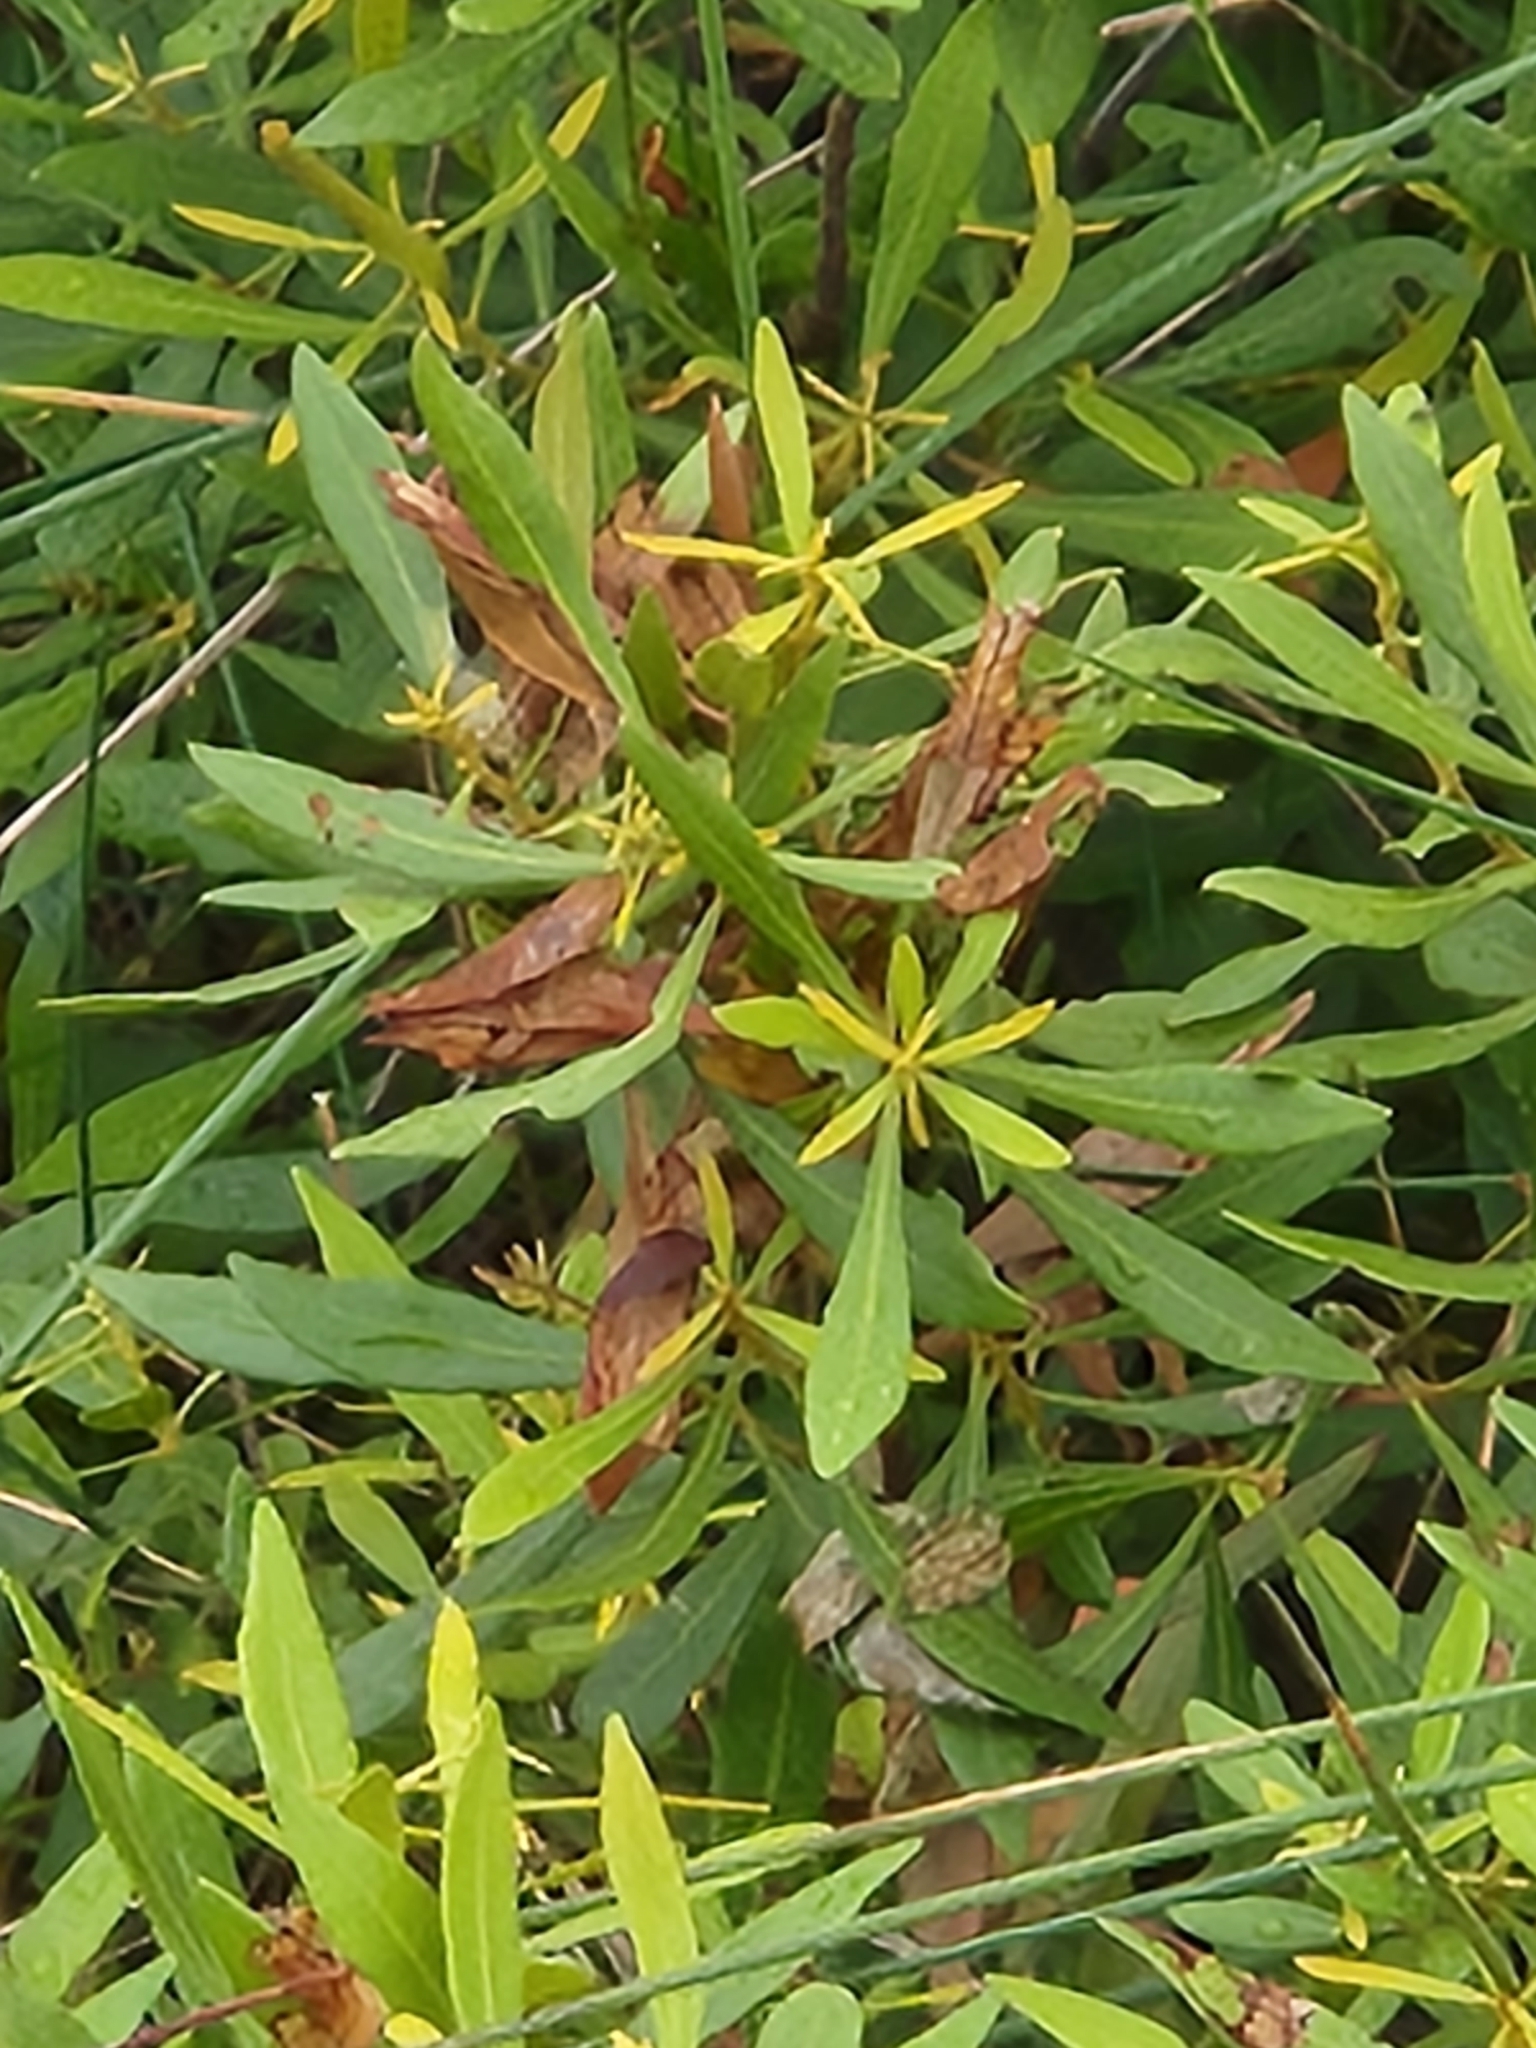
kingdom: Plantae
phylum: Tracheophyta
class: Magnoliopsida
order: Fagales
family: Myricaceae
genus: Morella
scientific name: Morella cerifera
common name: Wax myrtle
